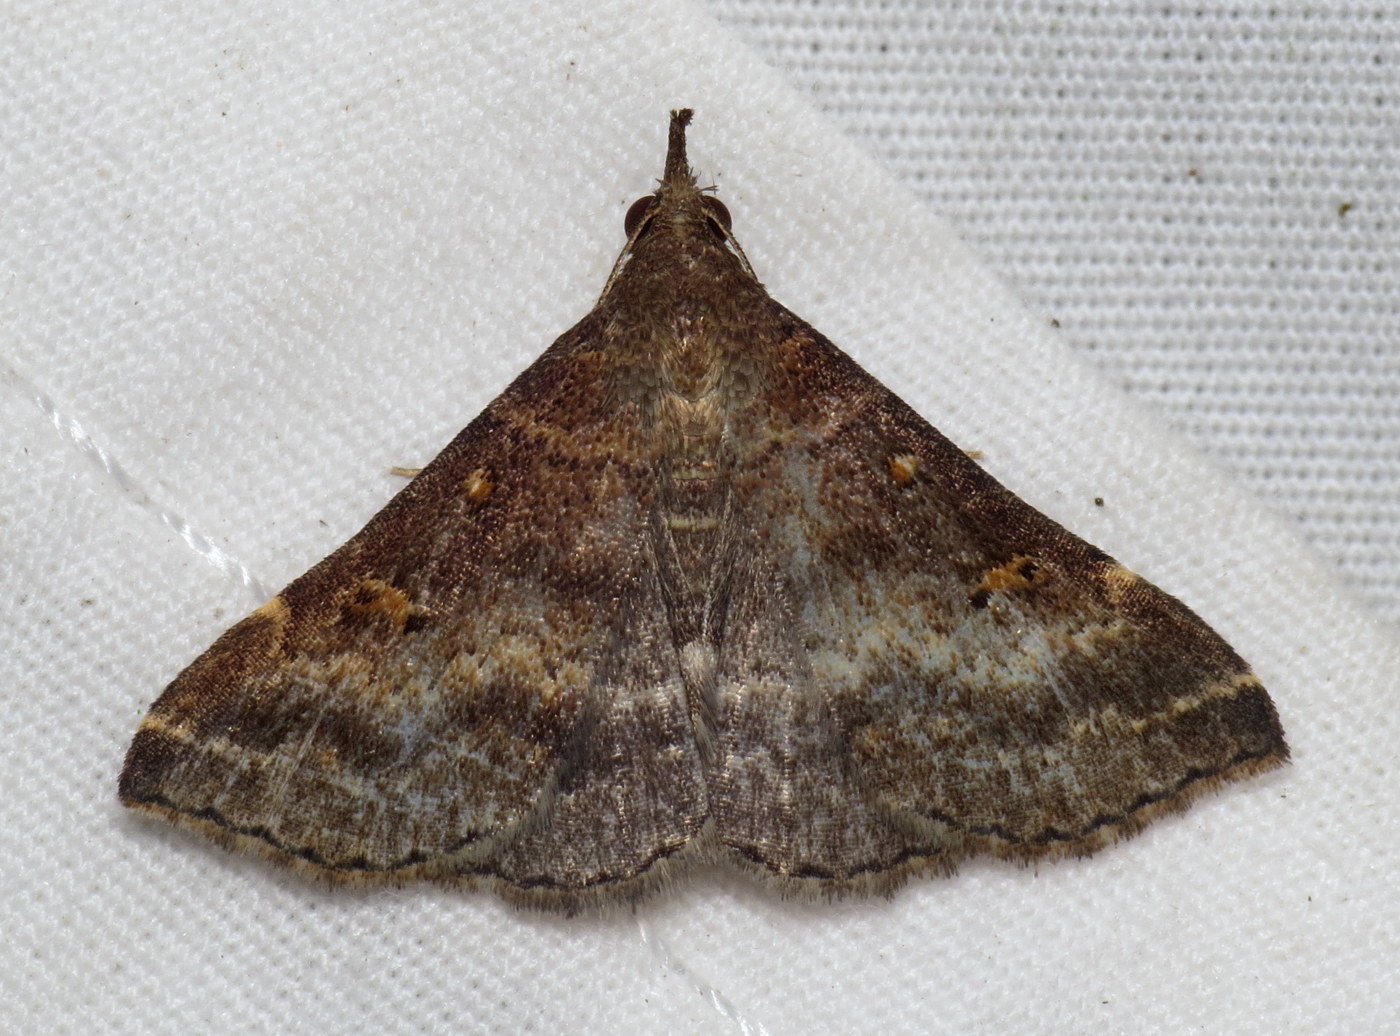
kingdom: Animalia
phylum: Arthropoda
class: Insecta
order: Lepidoptera
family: Erebidae
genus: Renia
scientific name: Renia factiosalis
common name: Sociable renia moth
